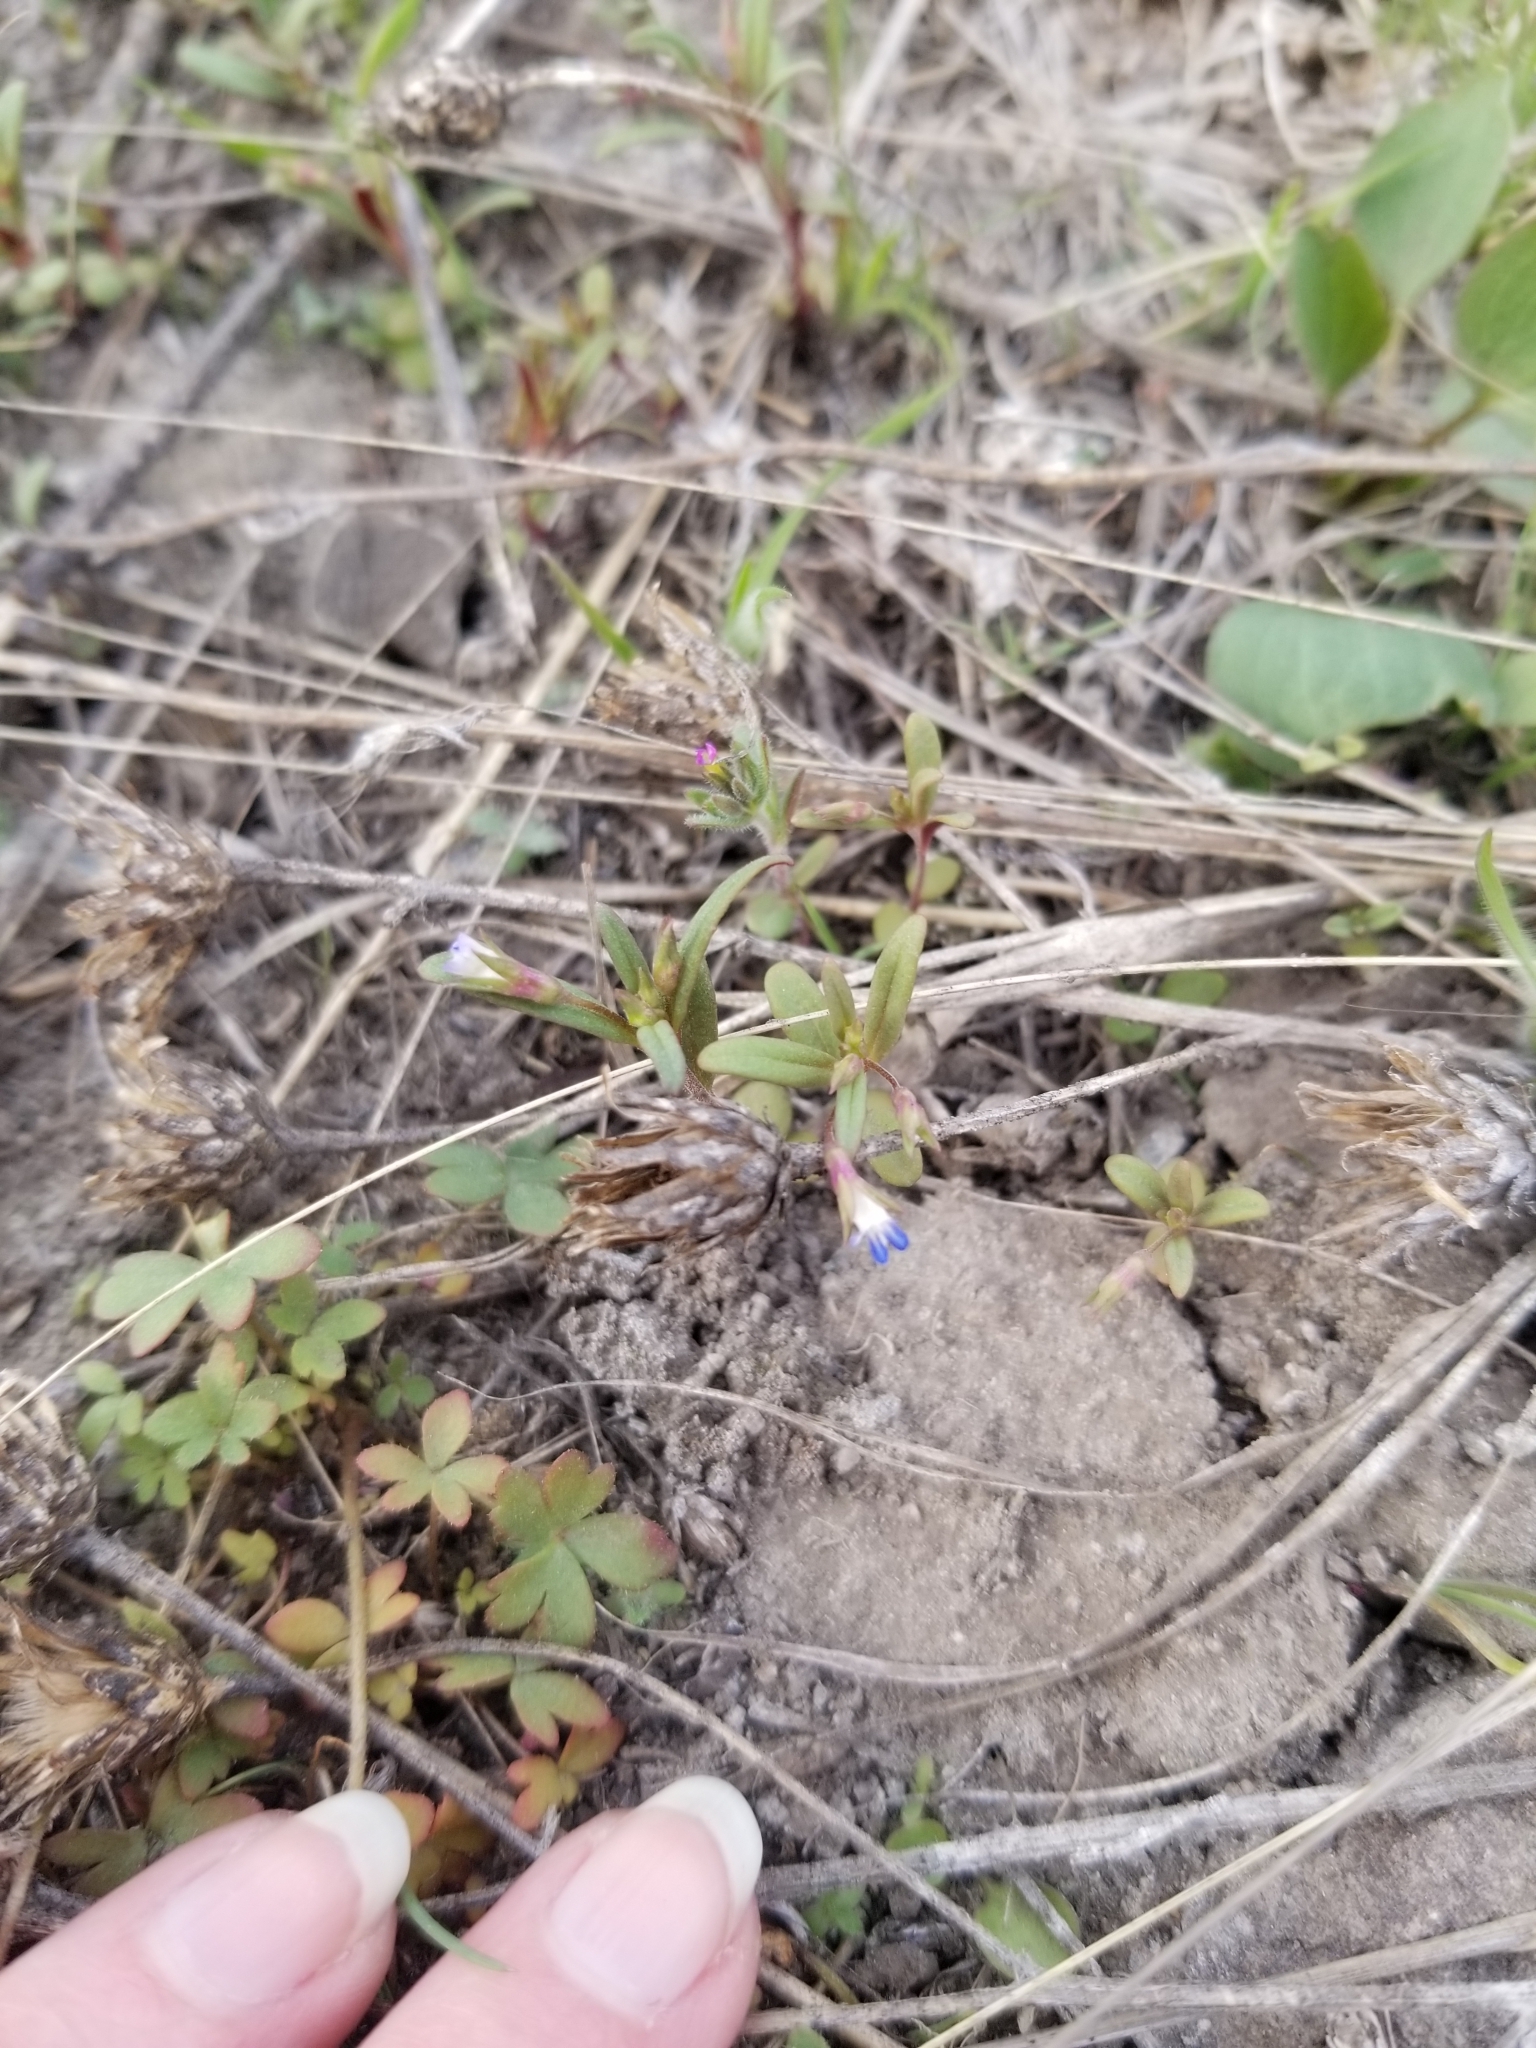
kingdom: Plantae
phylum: Tracheophyta
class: Magnoliopsida
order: Lamiales
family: Plantaginaceae
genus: Collinsia
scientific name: Collinsia parviflora
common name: Blue-lips
